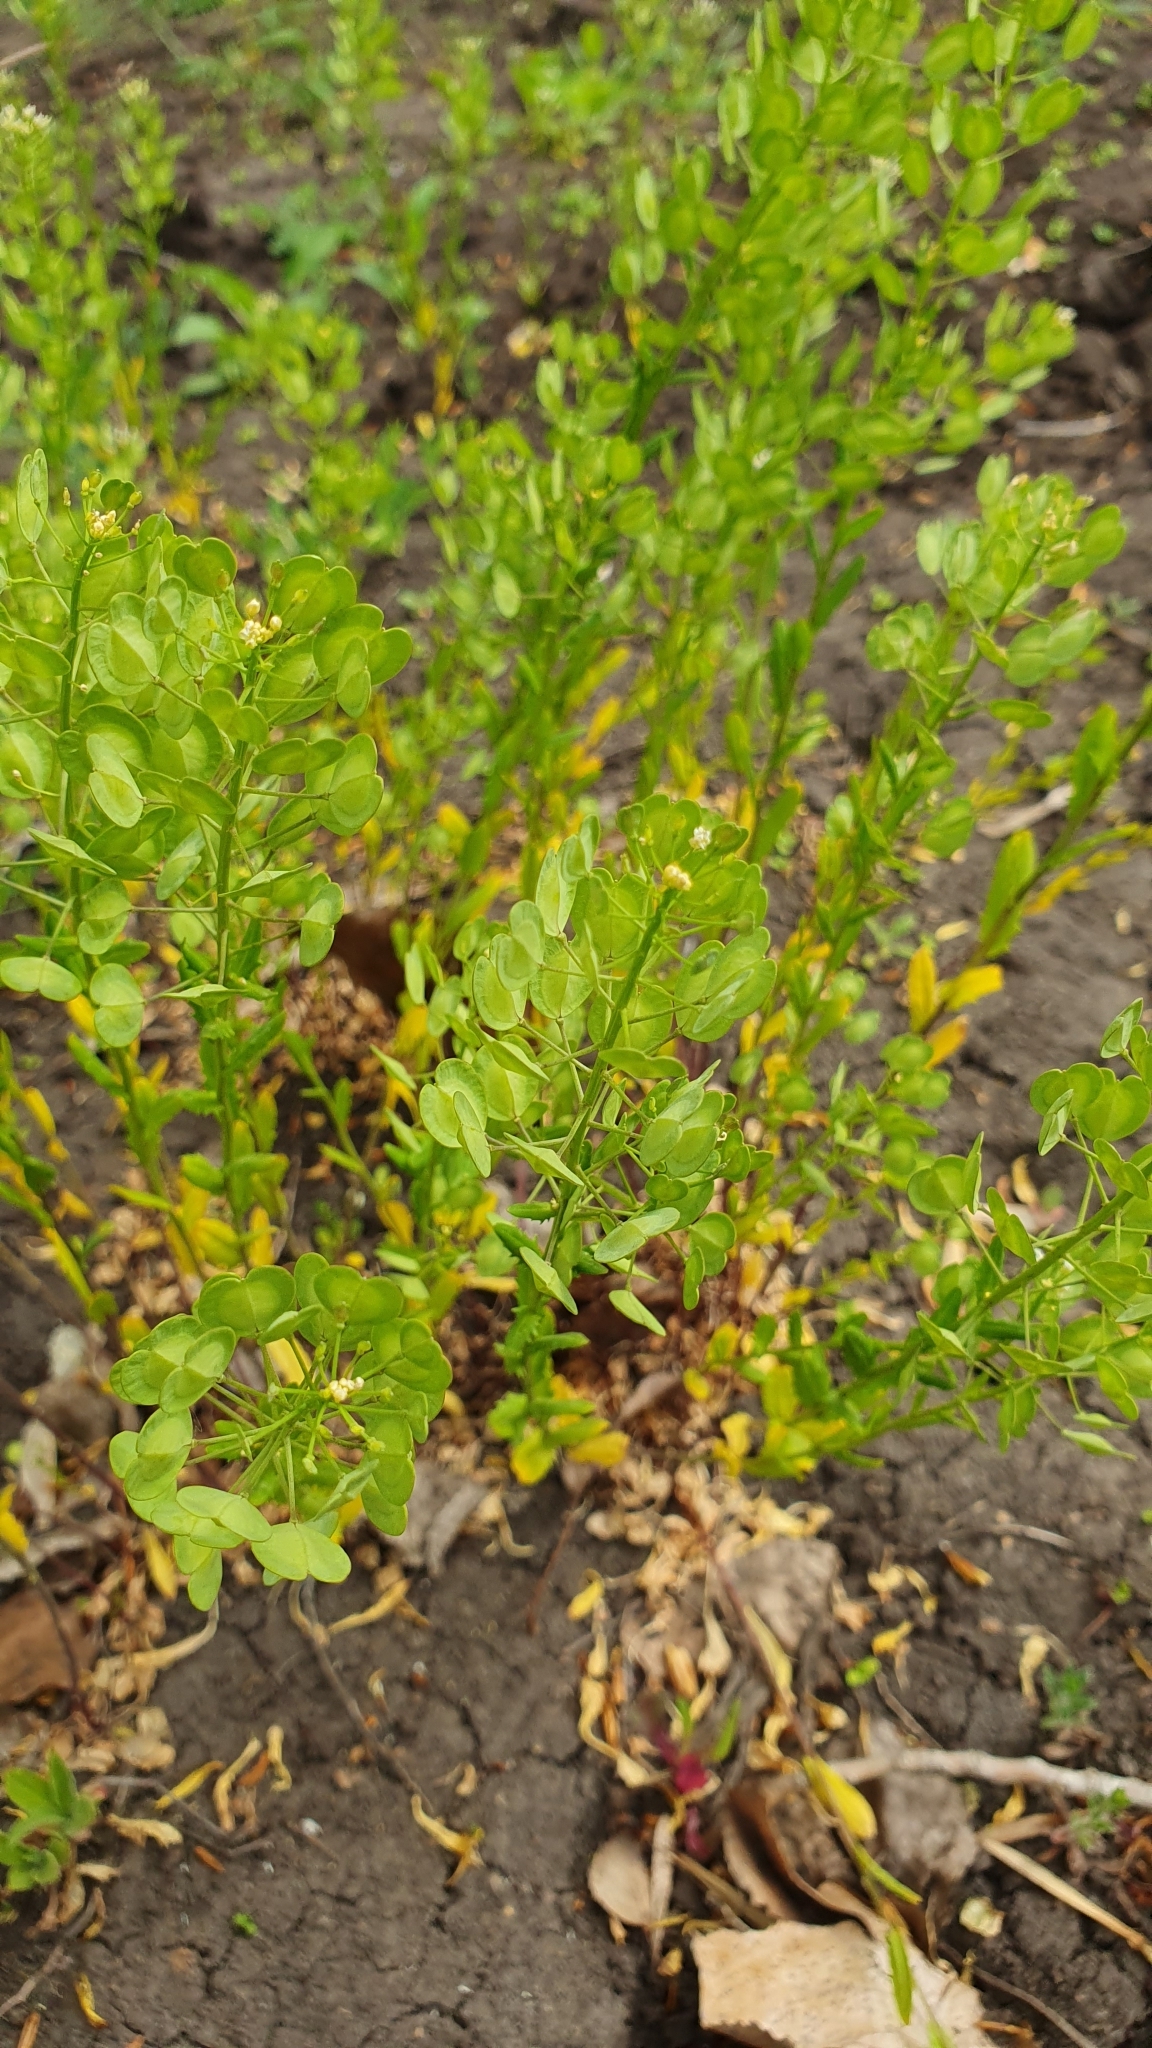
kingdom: Plantae
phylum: Tracheophyta
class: Magnoliopsida
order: Brassicales
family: Brassicaceae
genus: Thlaspi
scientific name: Thlaspi arvense
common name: Field pennycress
